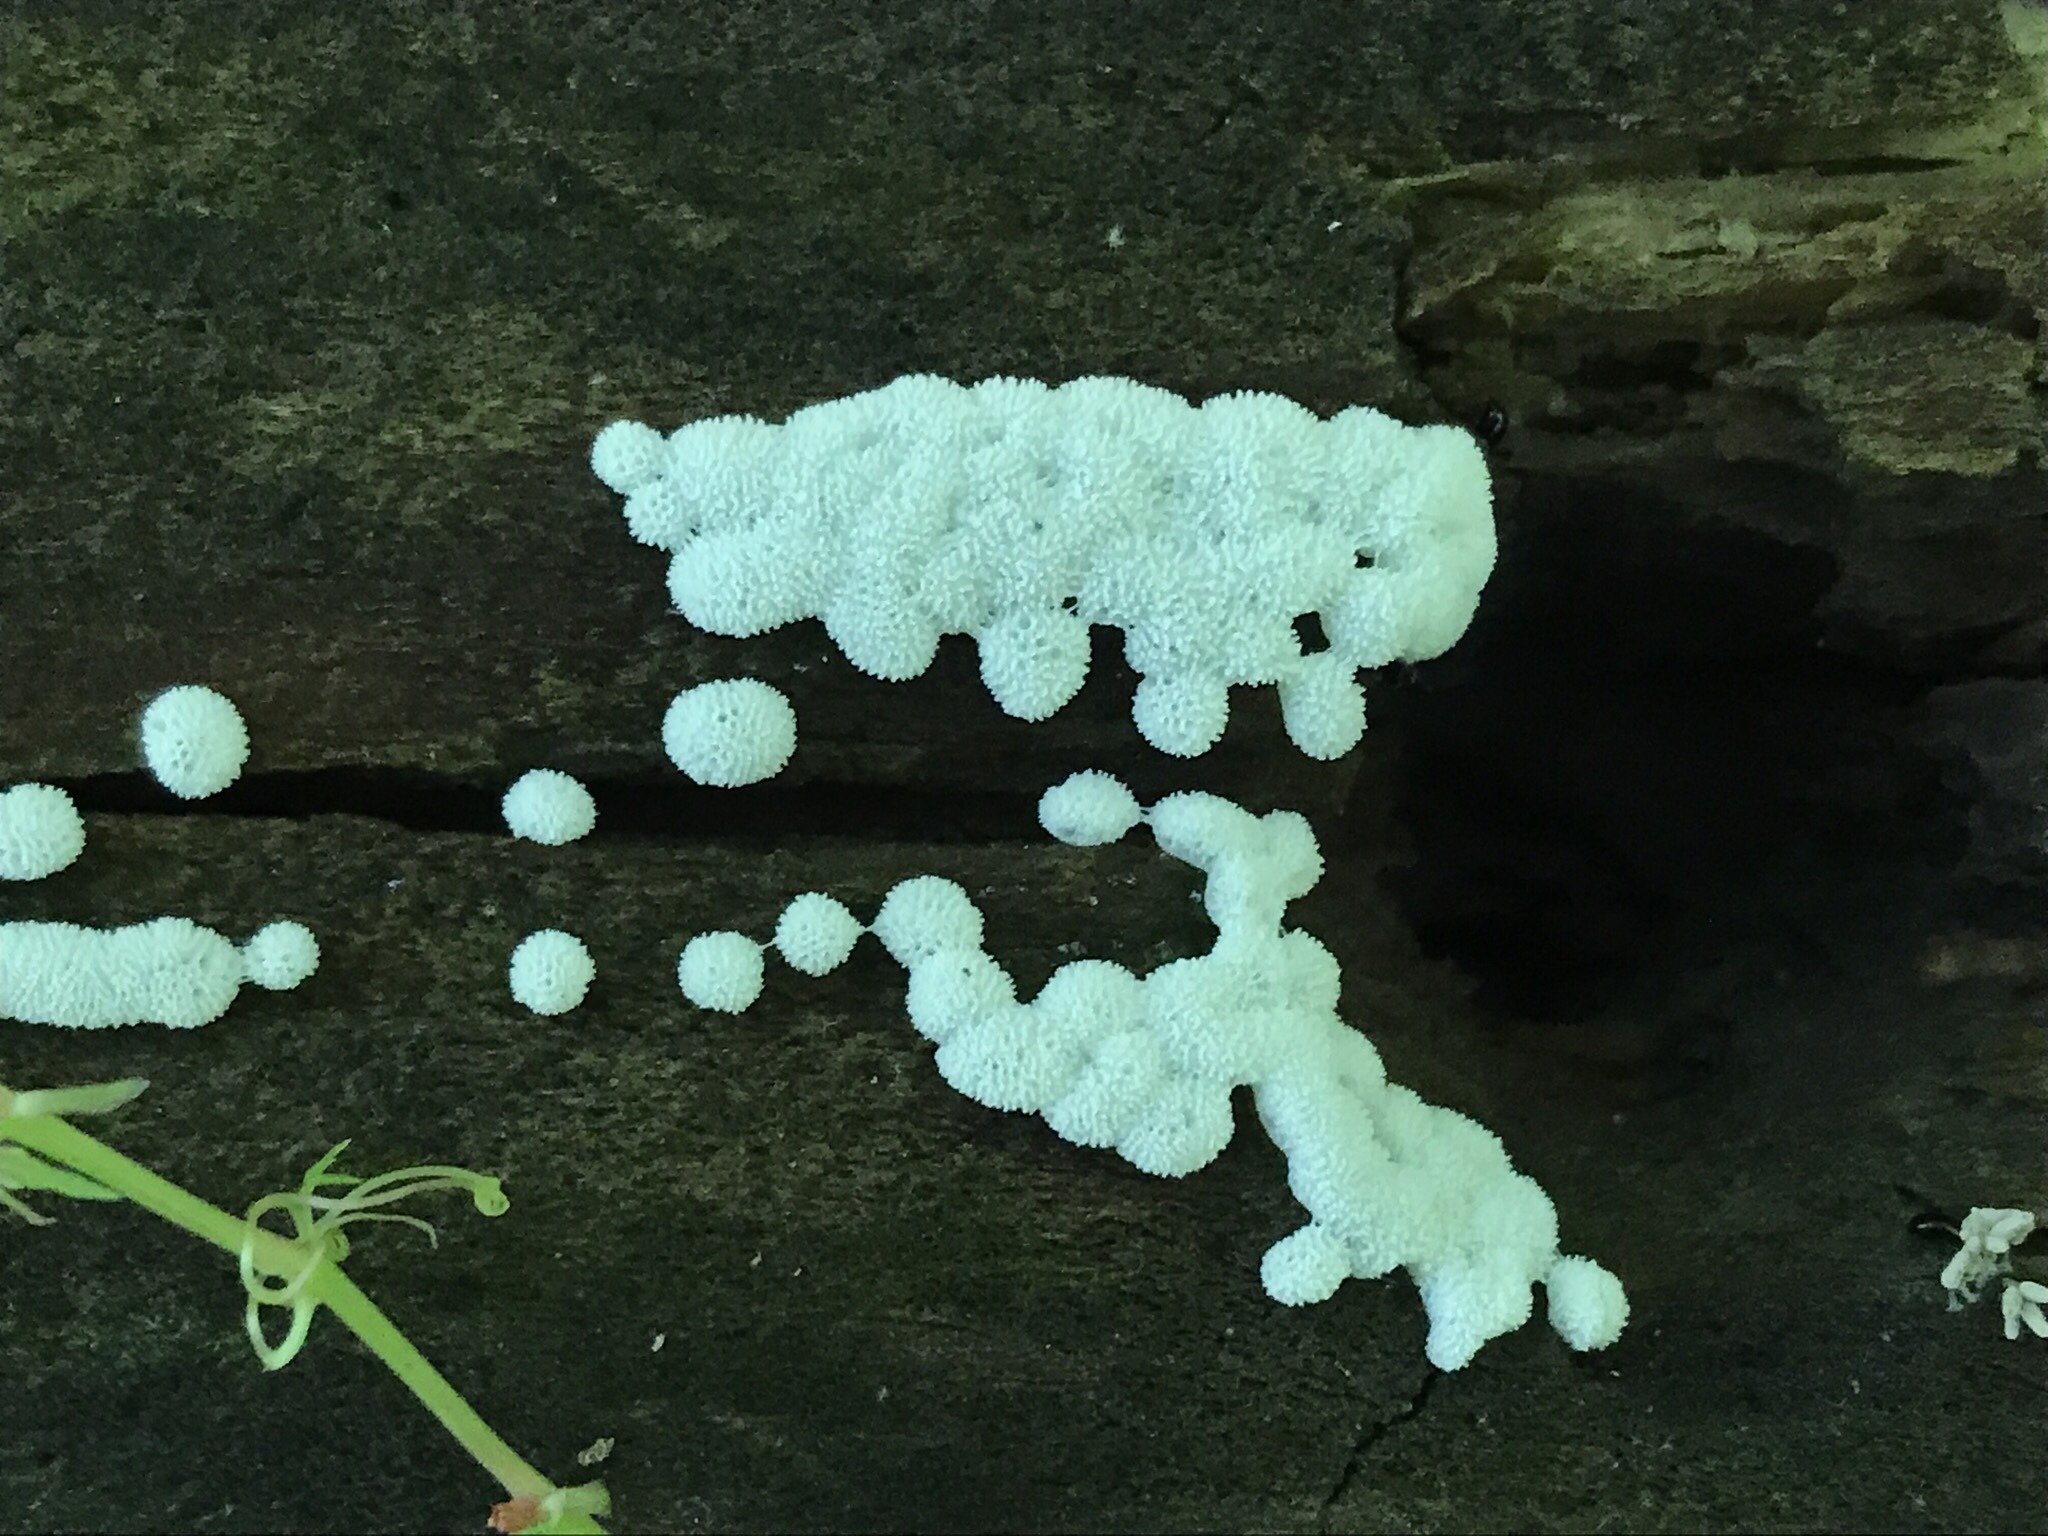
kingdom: Protozoa
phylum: Mycetozoa
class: Protosteliomycetes
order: Ceratiomyxales
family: Ceratiomyxaceae
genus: Ceratiomyxa
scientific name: Ceratiomyxa fruticulosa
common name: Honeycomb coral slime mold
